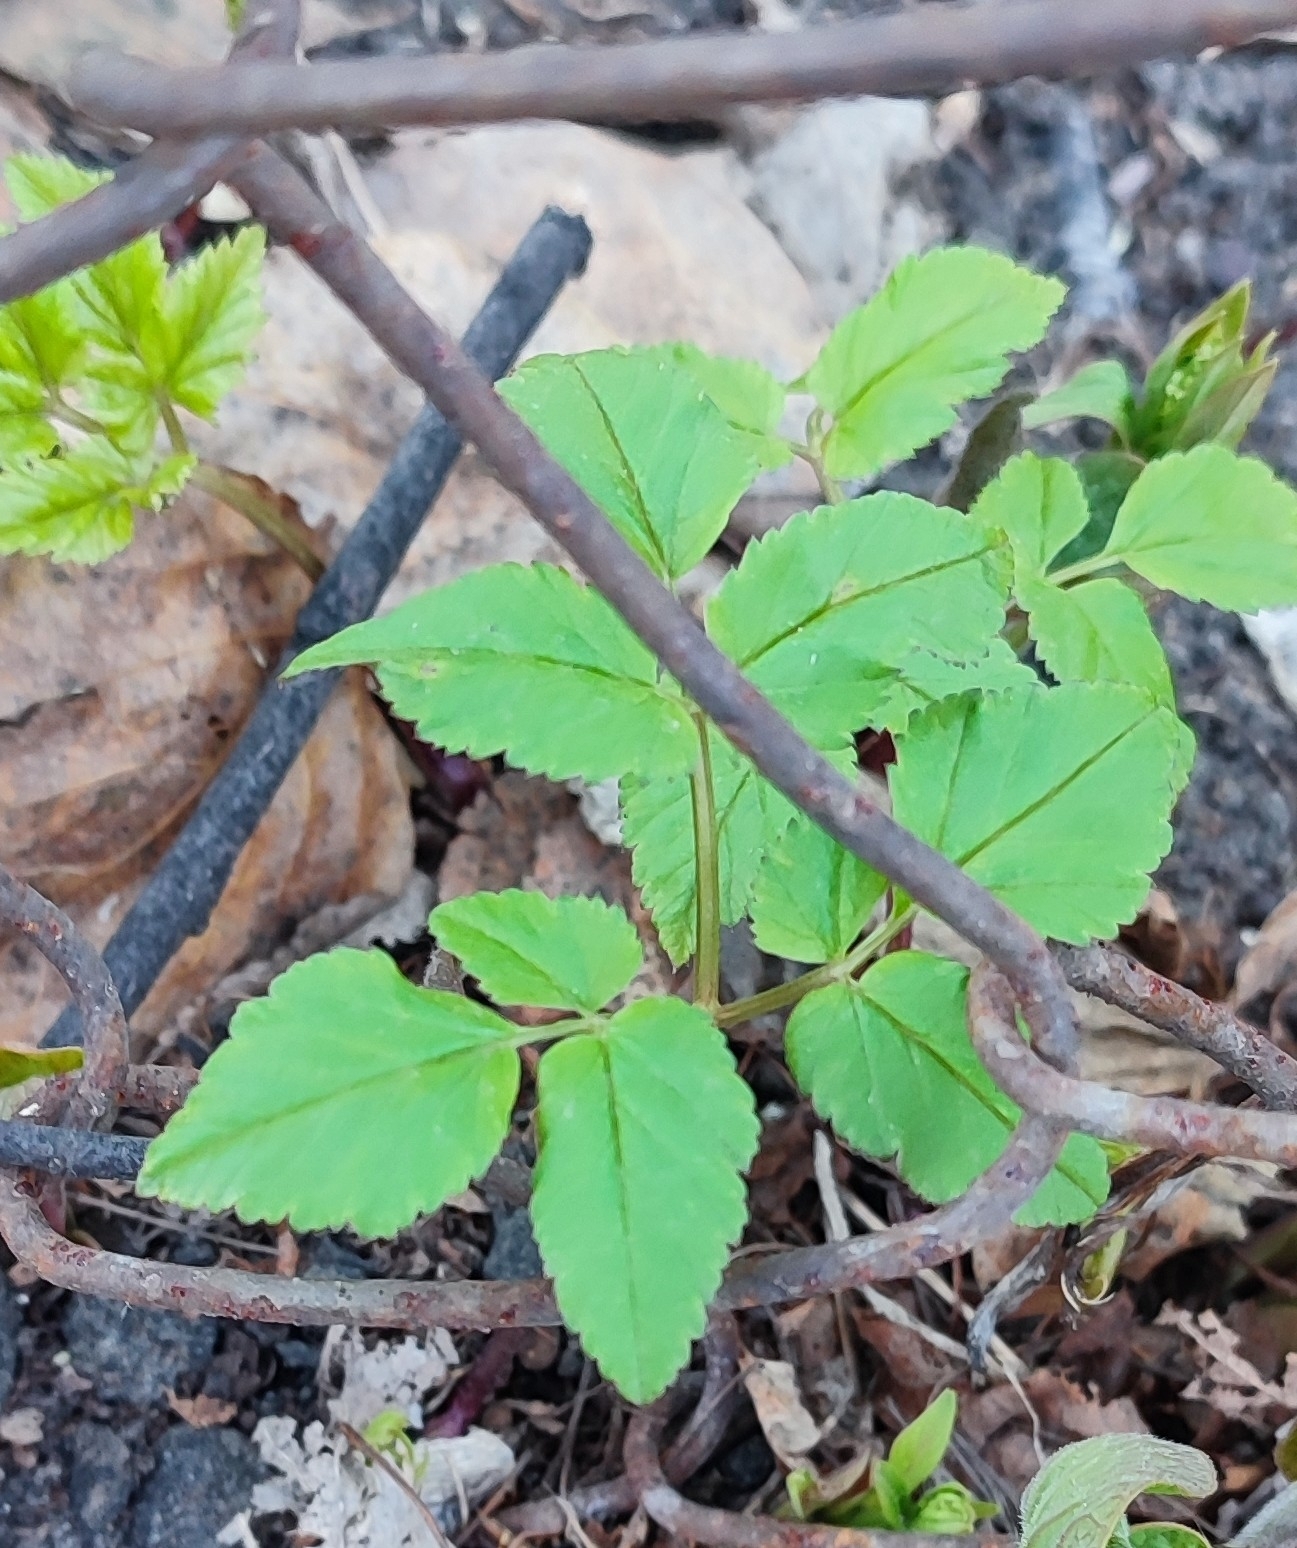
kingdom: Plantae
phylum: Tracheophyta
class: Magnoliopsida
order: Apiales
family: Apiaceae
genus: Aegopodium
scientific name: Aegopodium podagraria
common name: Ground-elder
